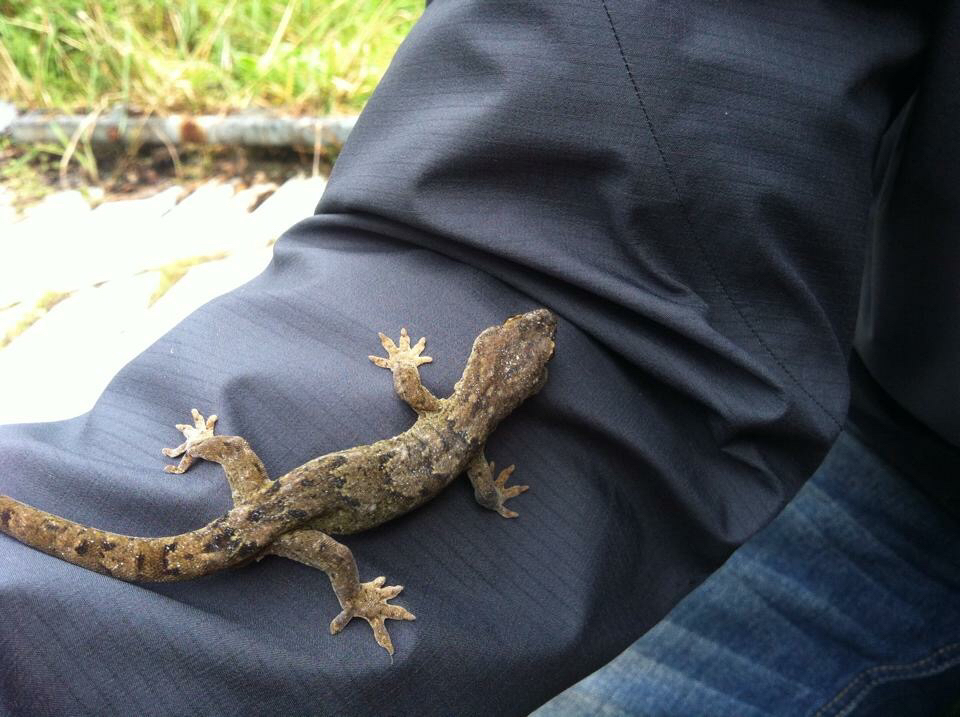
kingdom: Animalia
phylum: Chordata
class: Squamata
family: Diplodactylidae
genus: Woodworthia
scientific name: Woodworthia maculata
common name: Raukawa gecko
